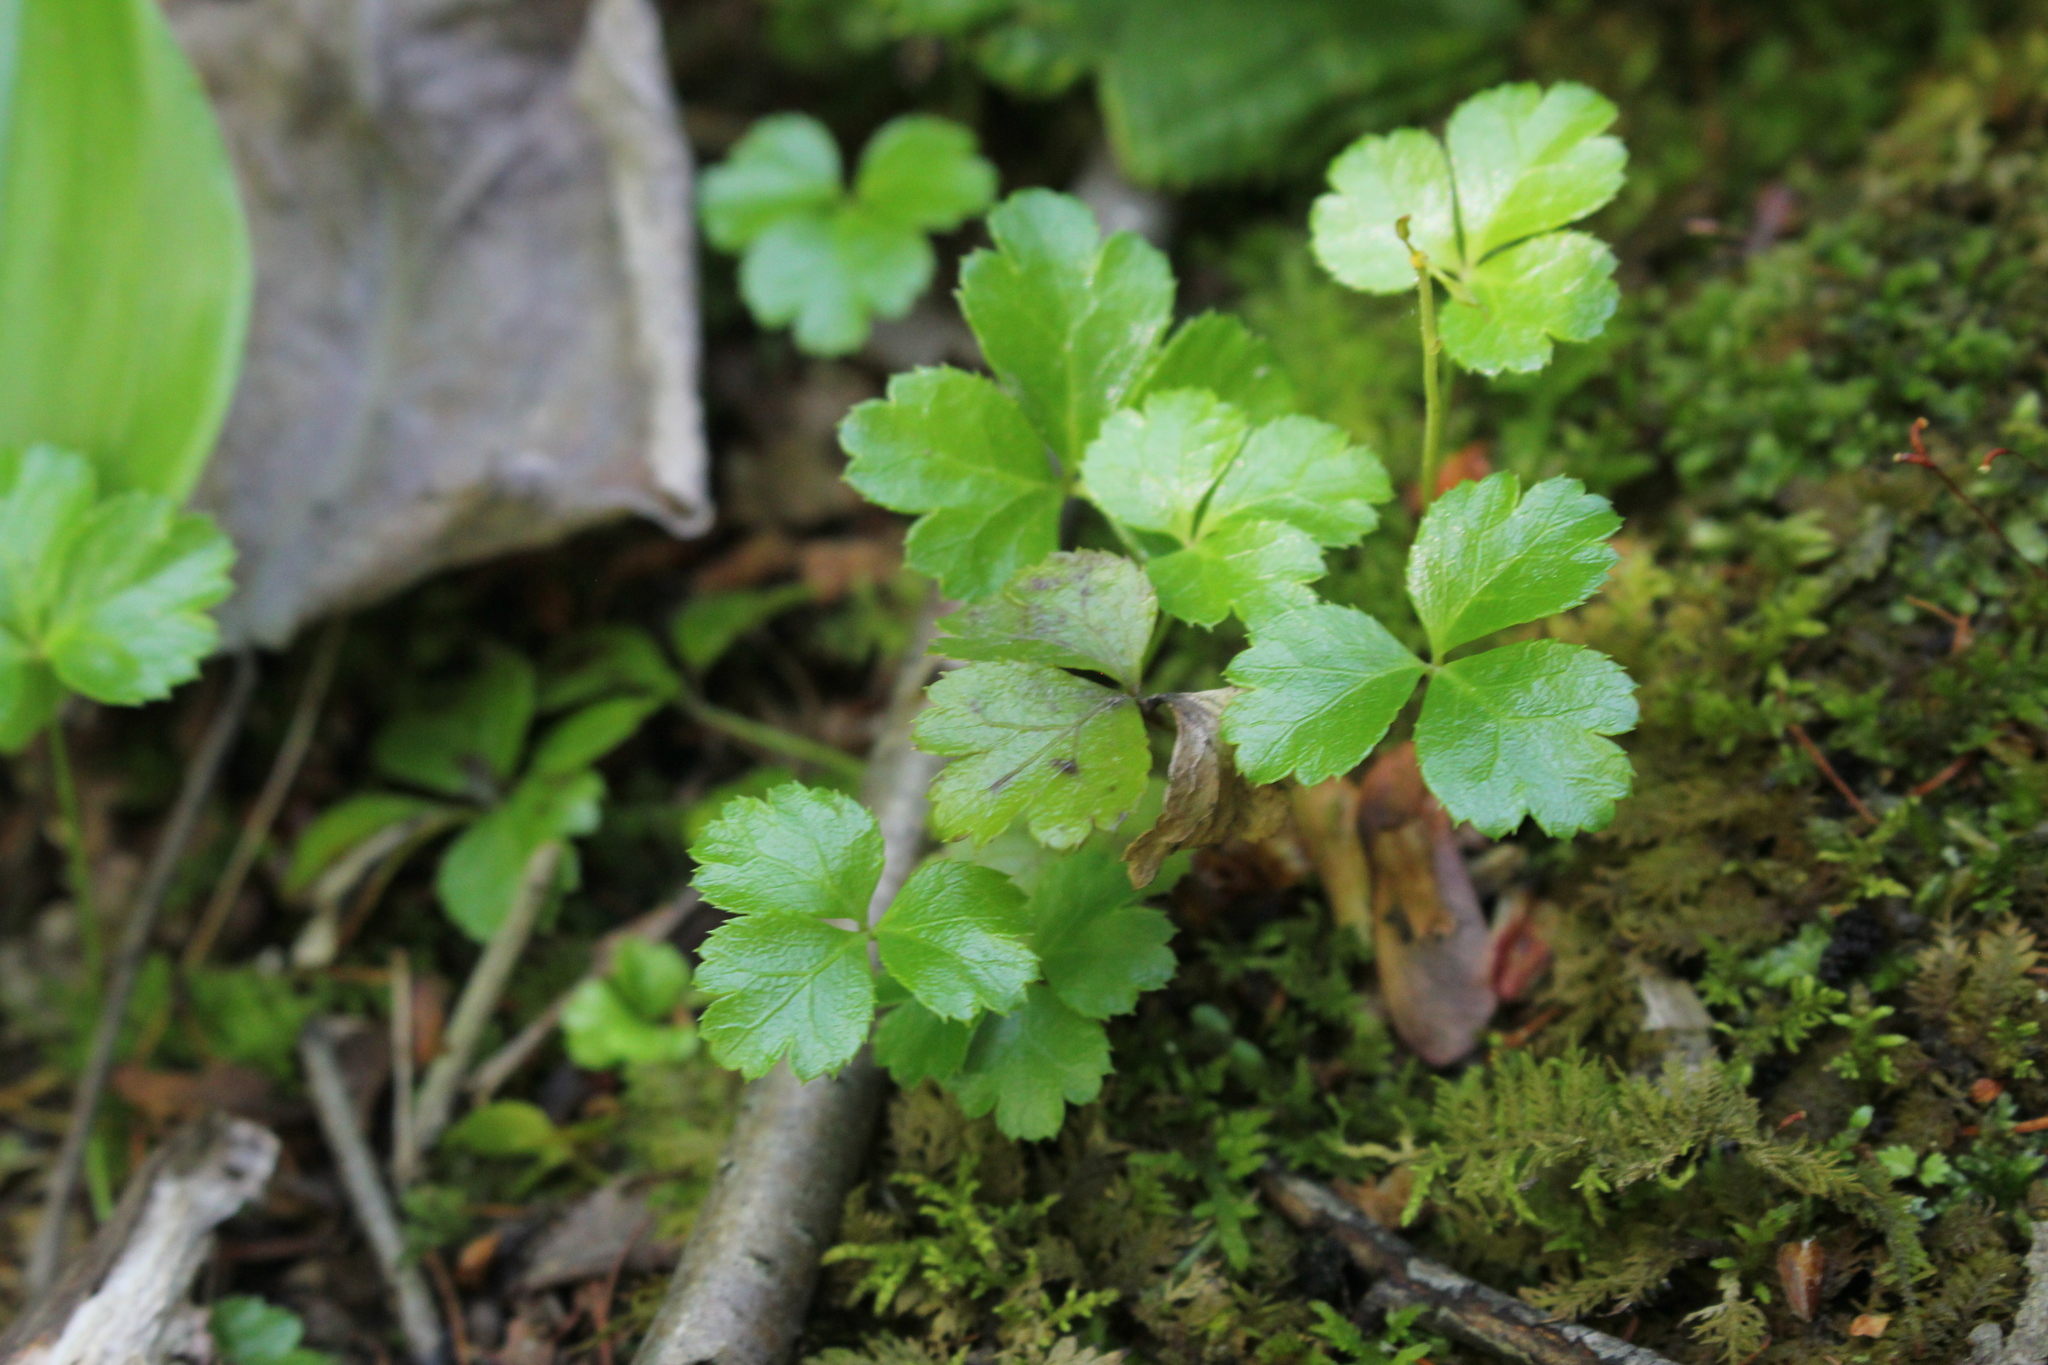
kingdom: Plantae
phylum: Tracheophyta
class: Magnoliopsida
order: Ranunculales
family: Ranunculaceae
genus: Coptis
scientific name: Coptis trifolia
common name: Canker-root
